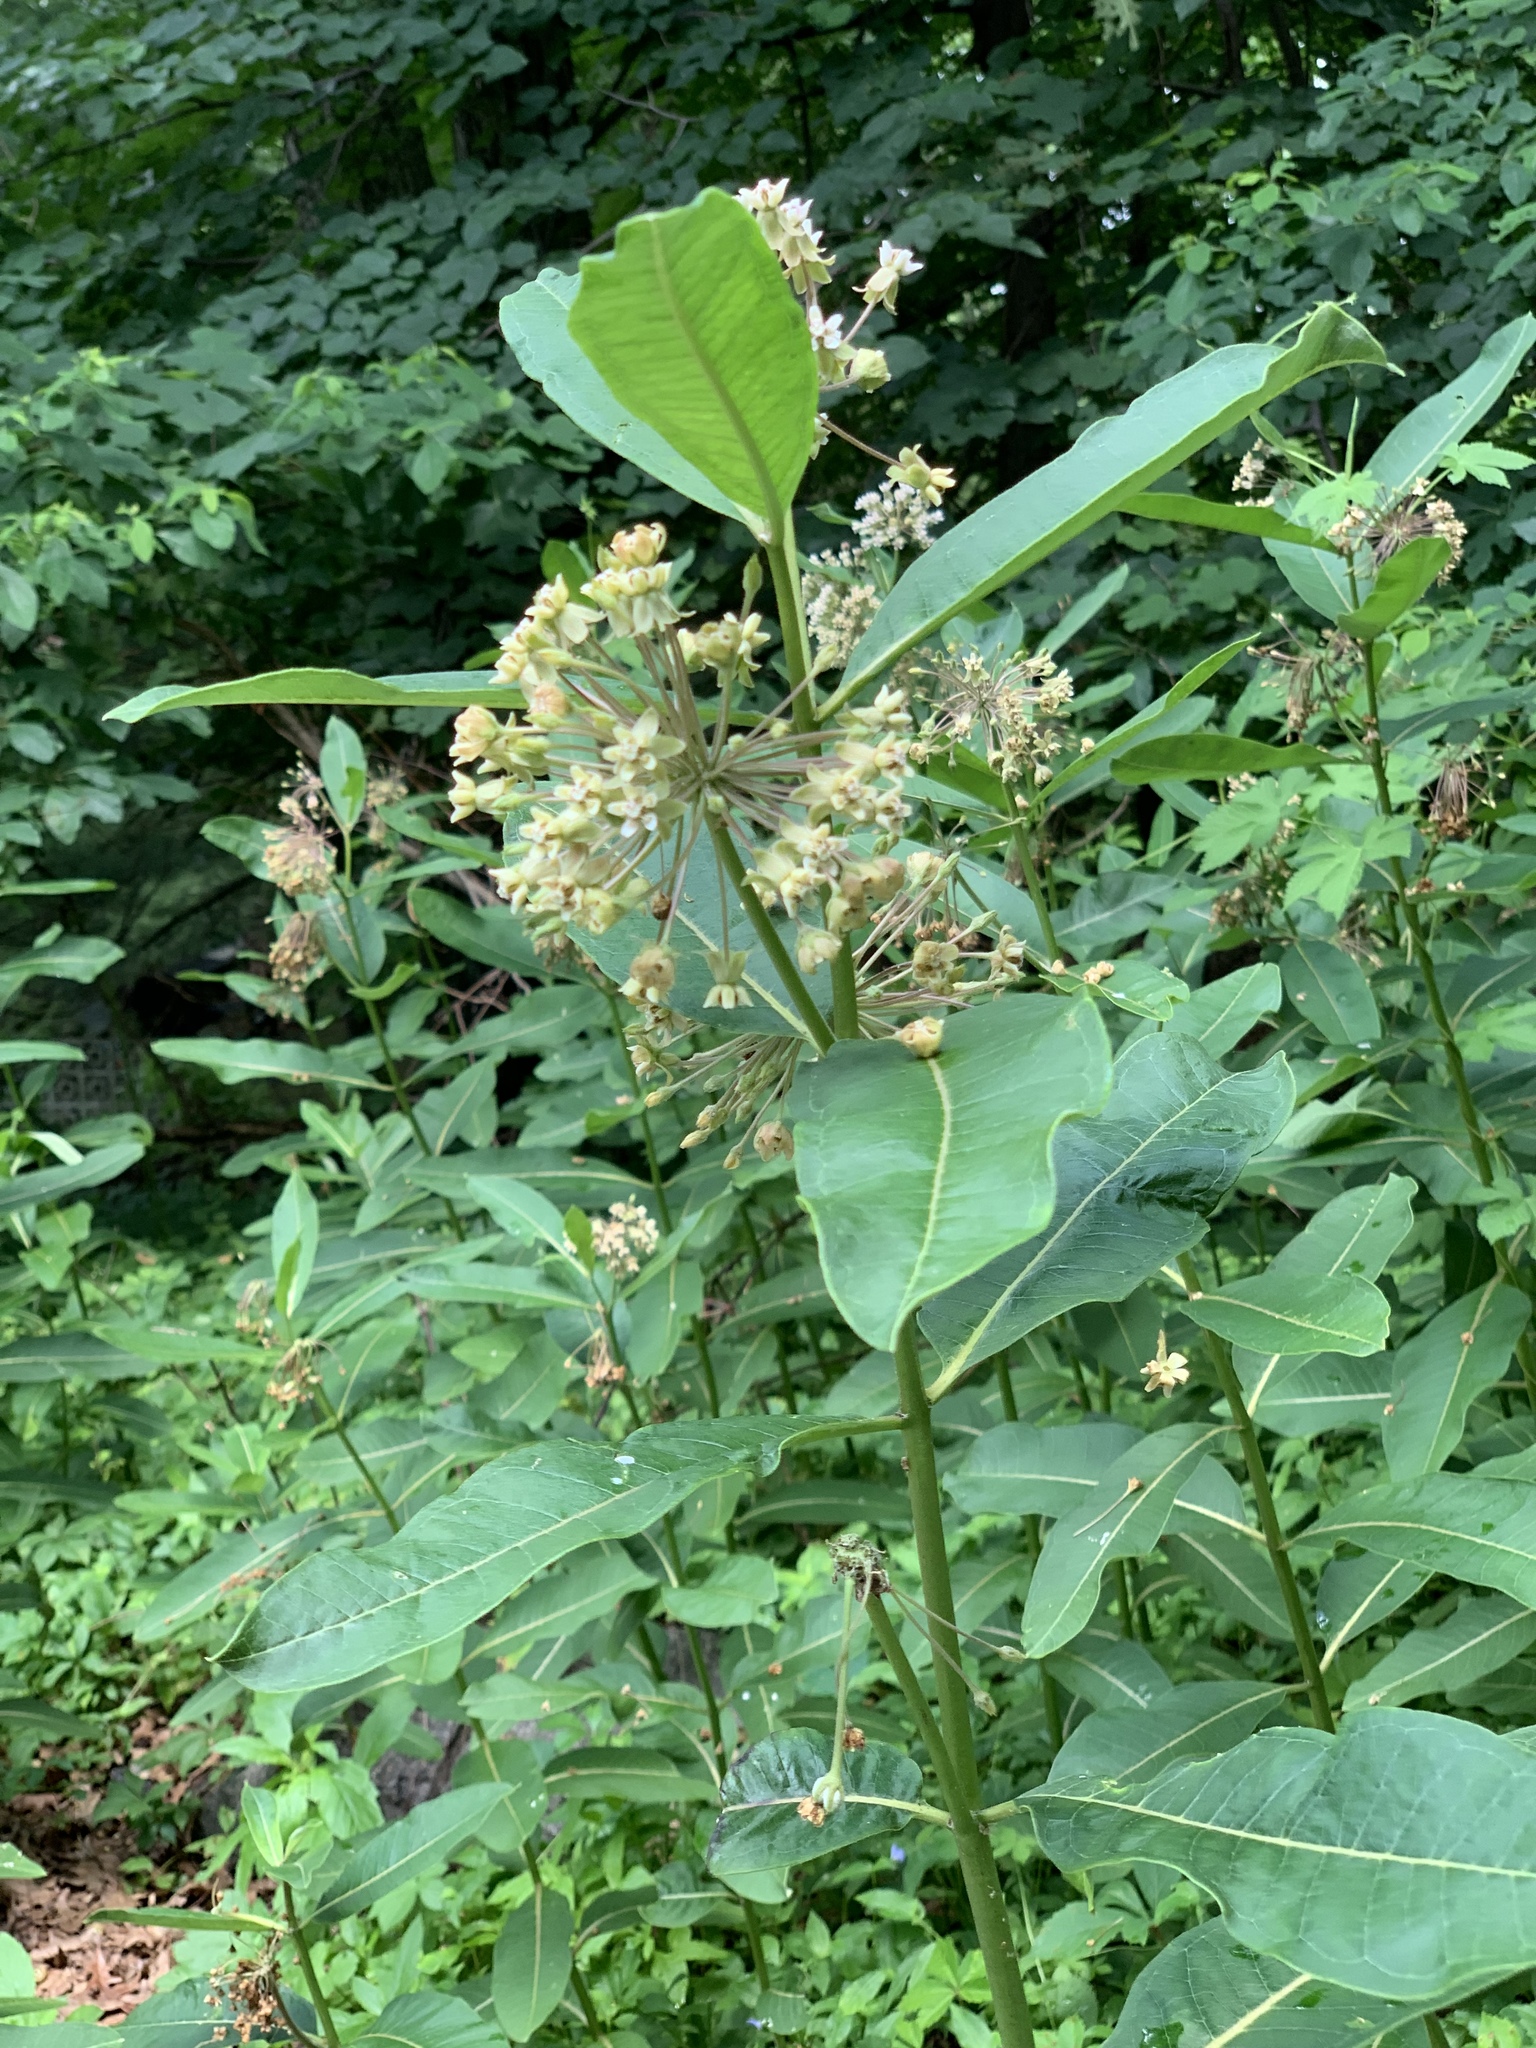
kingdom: Plantae
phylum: Tracheophyta
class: Magnoliopsida
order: Gentianales
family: Apocynaceae
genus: Asclepias
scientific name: Asclepias syriaca
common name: Common milkweed
